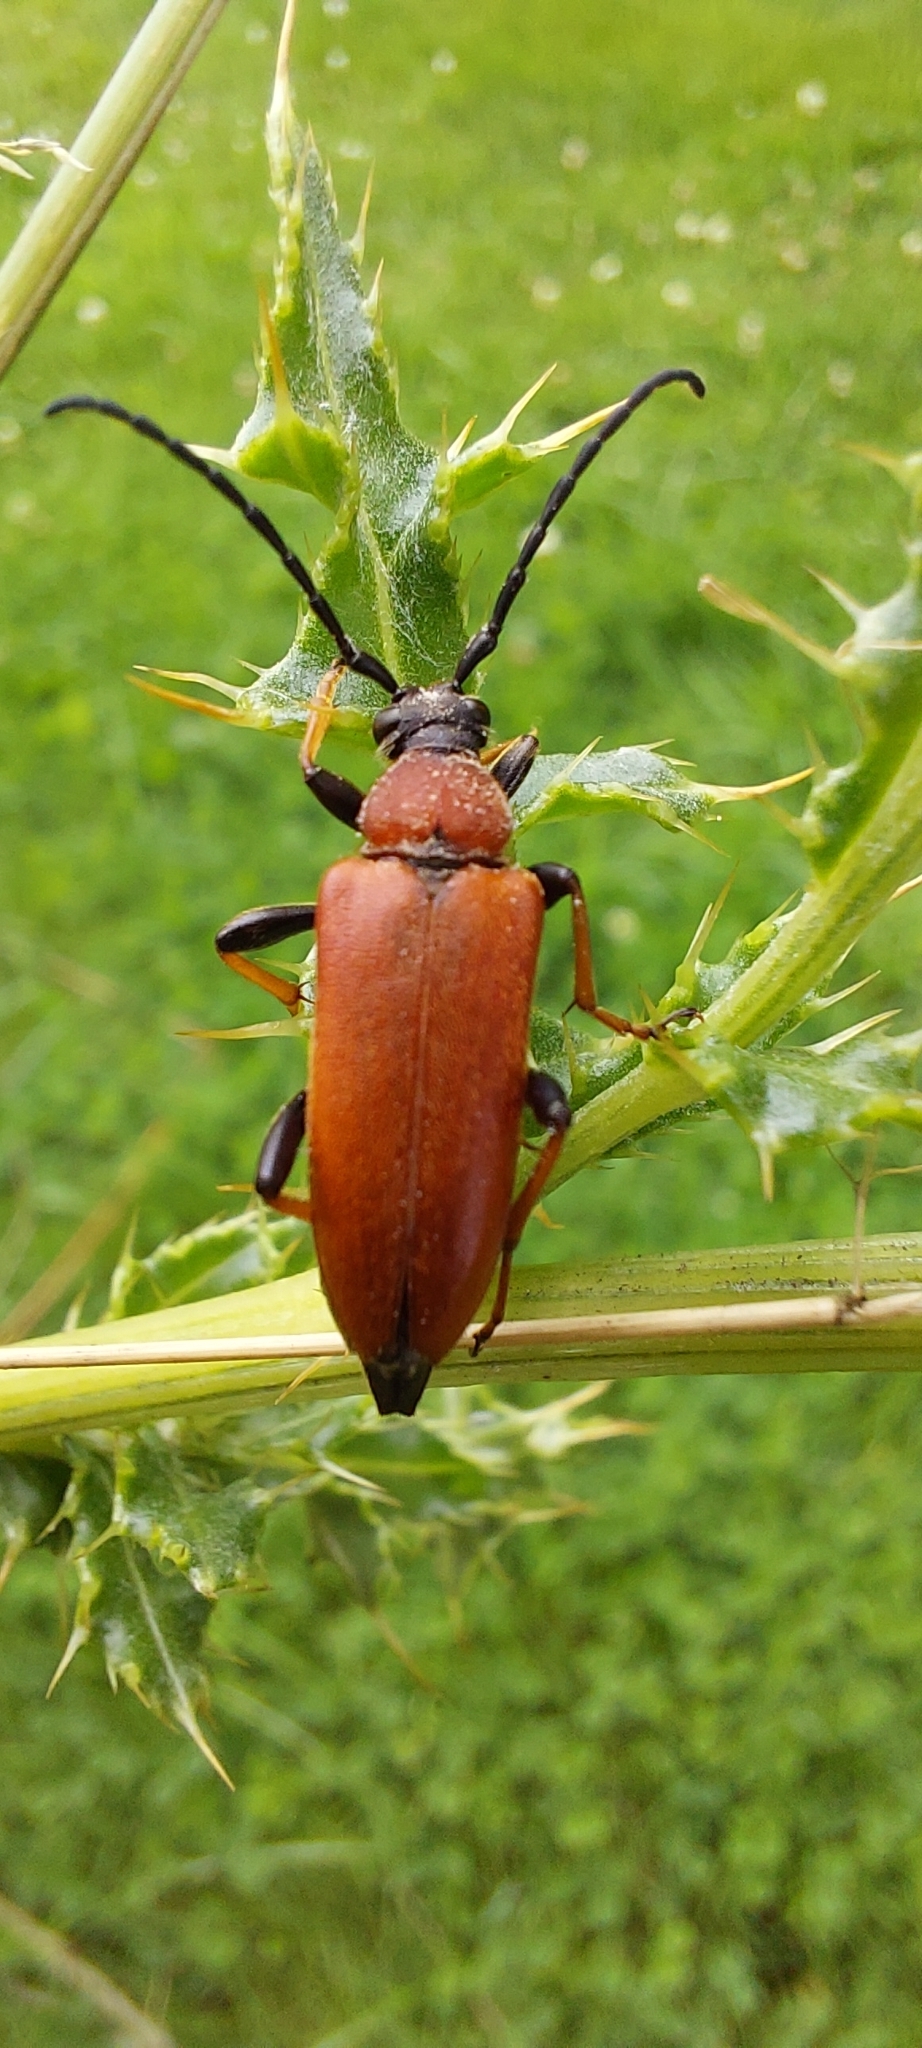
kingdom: Animalia
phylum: Arthropoda
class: Insecta
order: Coleoptera
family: Cerambycidae
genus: Stictoleptura
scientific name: Stictoleptura rubra
